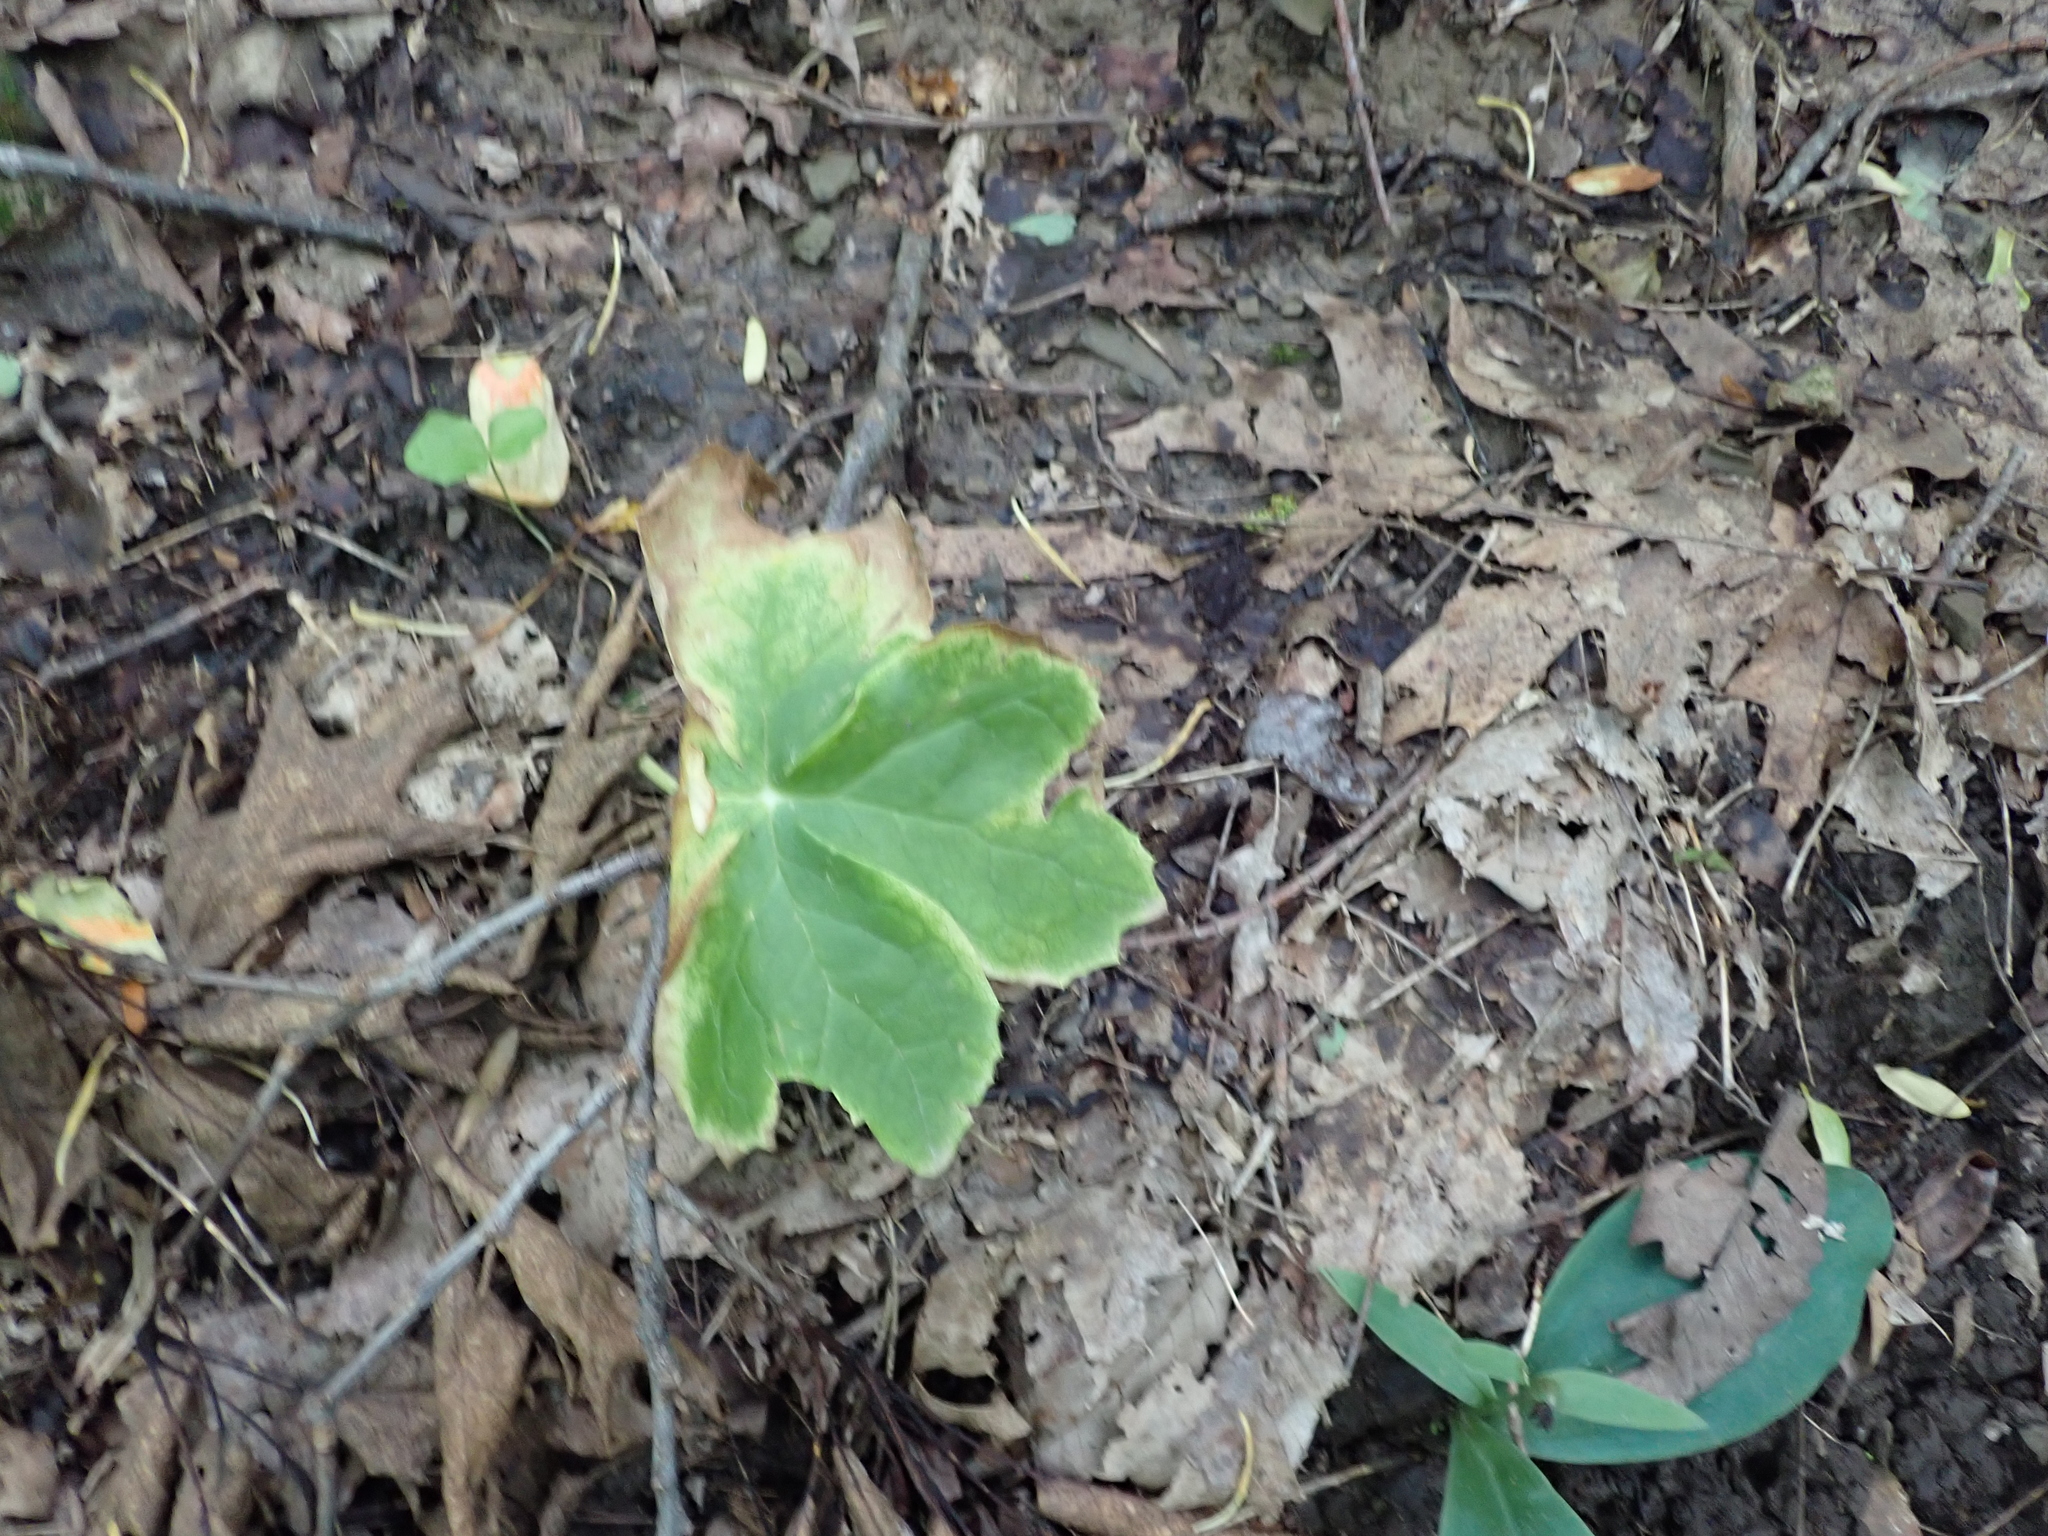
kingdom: Plantae
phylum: Tracheophyta
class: Magnoliopsida
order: Ranunculales
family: Berberidaceae
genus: Podophyllum
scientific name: Podophyllum peltatum
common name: Wild mandrake
